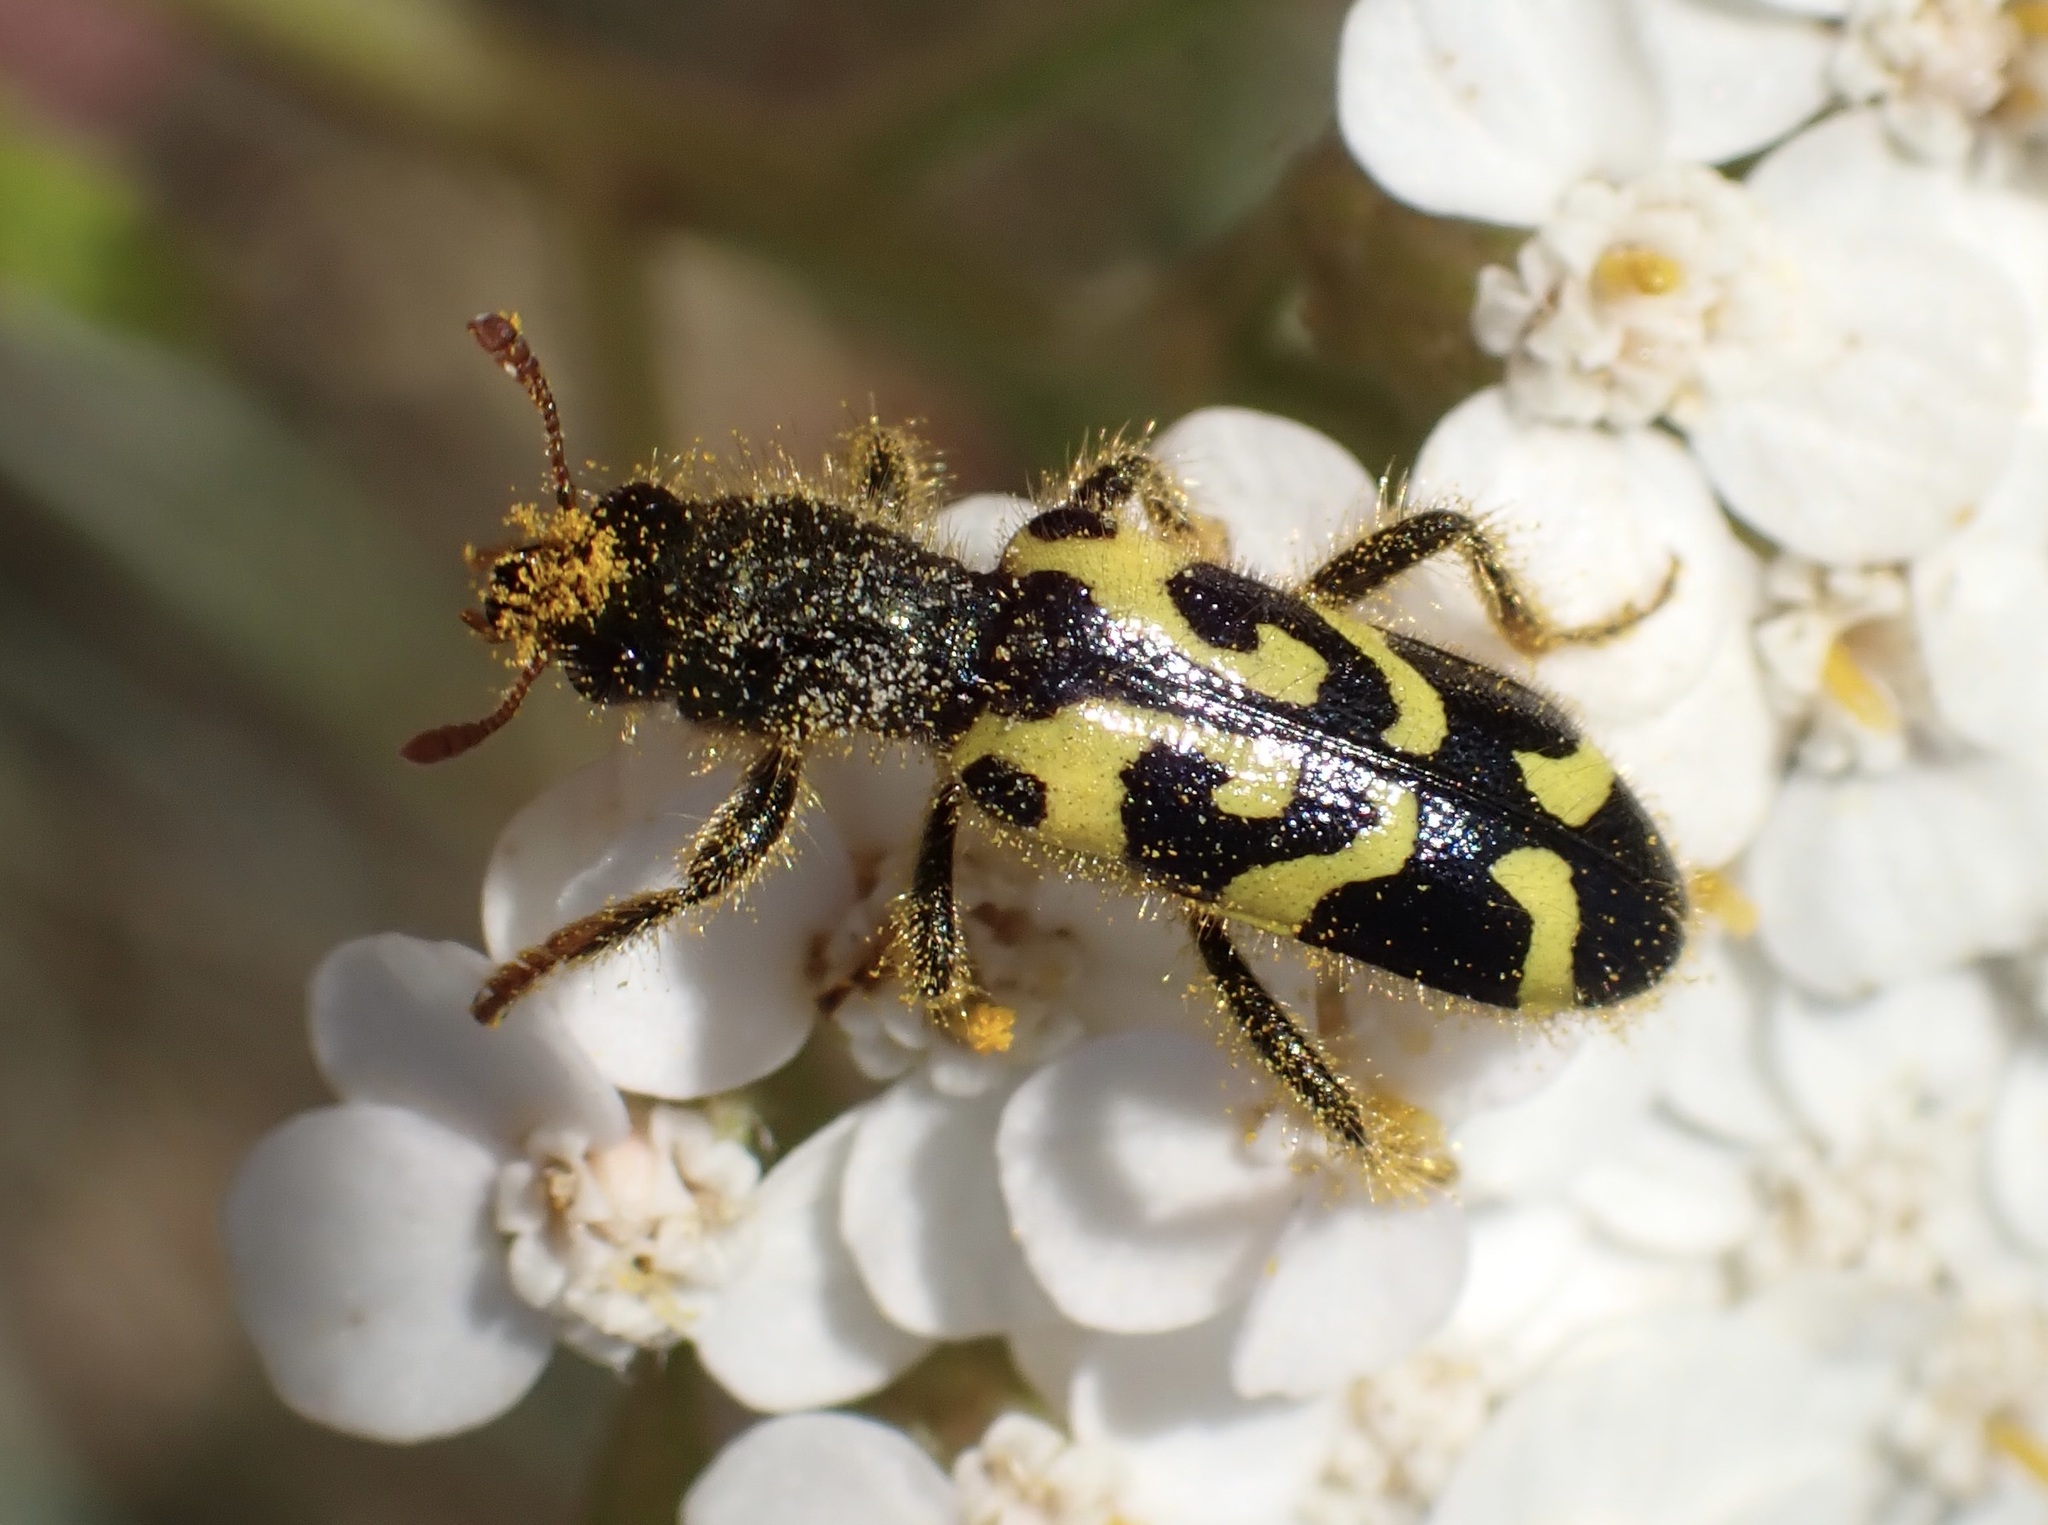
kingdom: Animalia
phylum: Arthropoda
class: Insecta
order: Coleoptera
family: Cleridae
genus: Trichodes
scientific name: Trichodes ornatus
